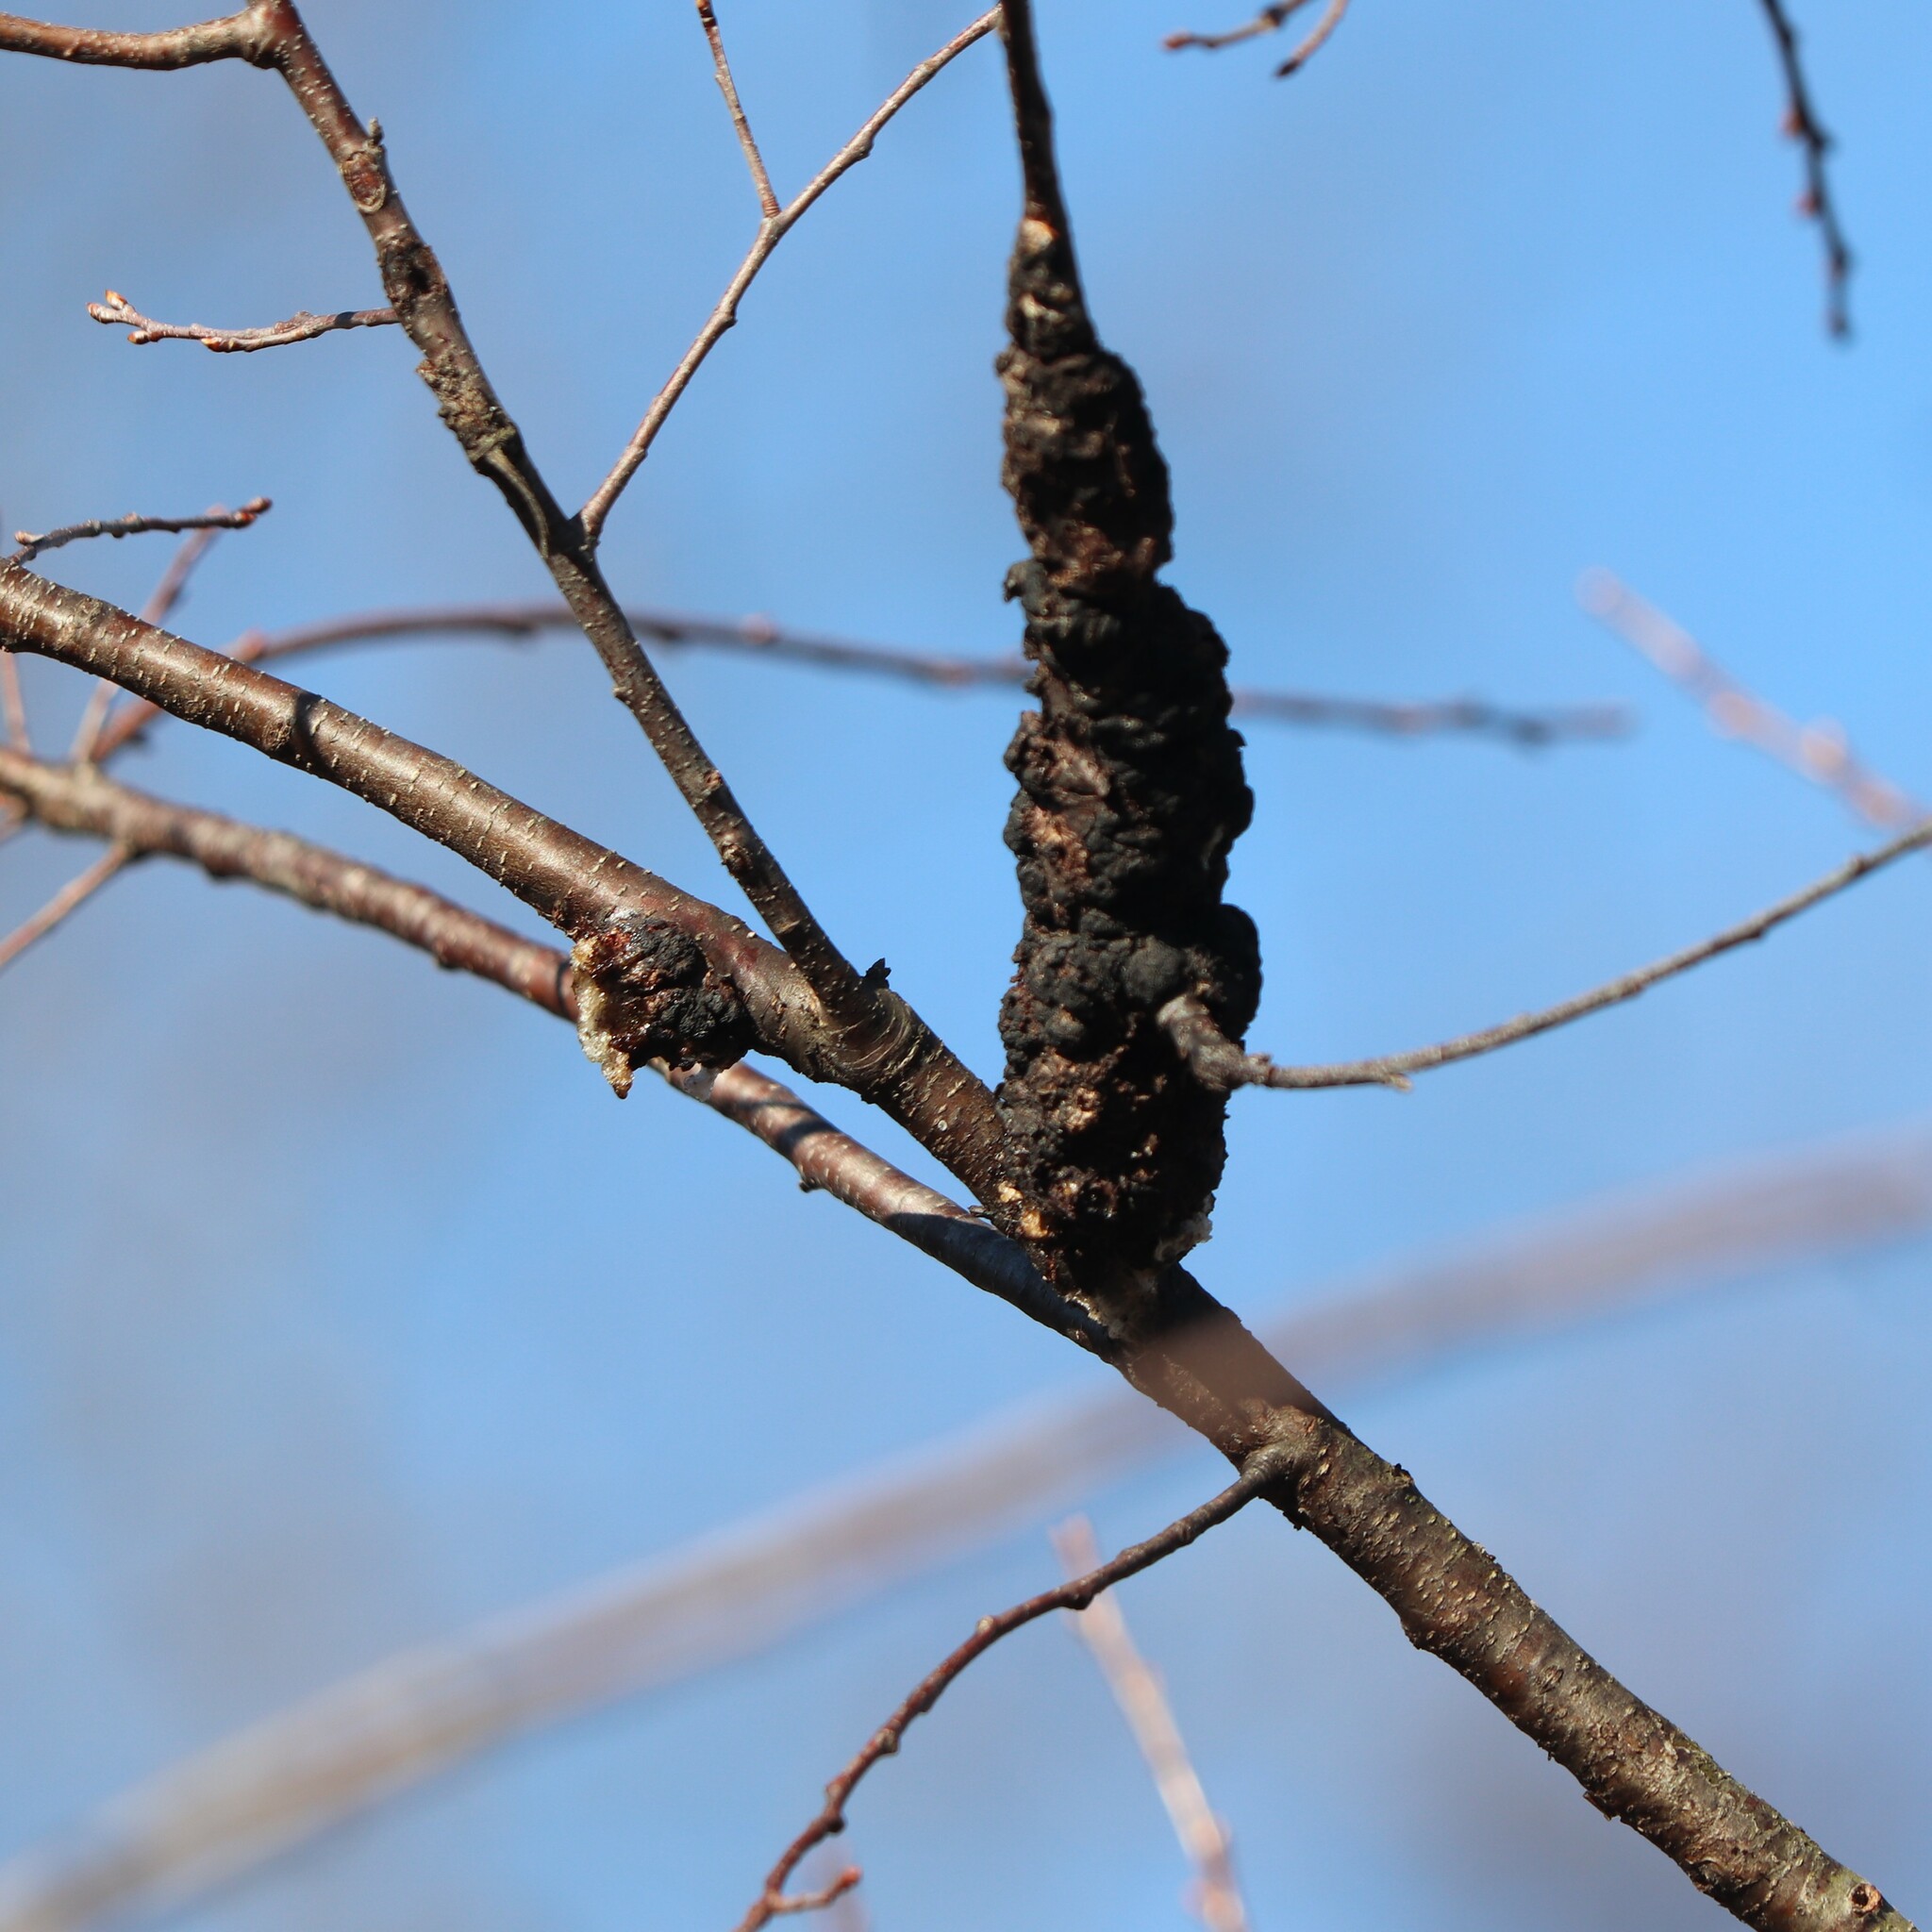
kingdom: Fungi
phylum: Ascomycota
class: Dothideomycetes
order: Venturiales
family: Venturiaceae
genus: Apiosporina
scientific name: Apiosporina morbosa
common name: Black knot
